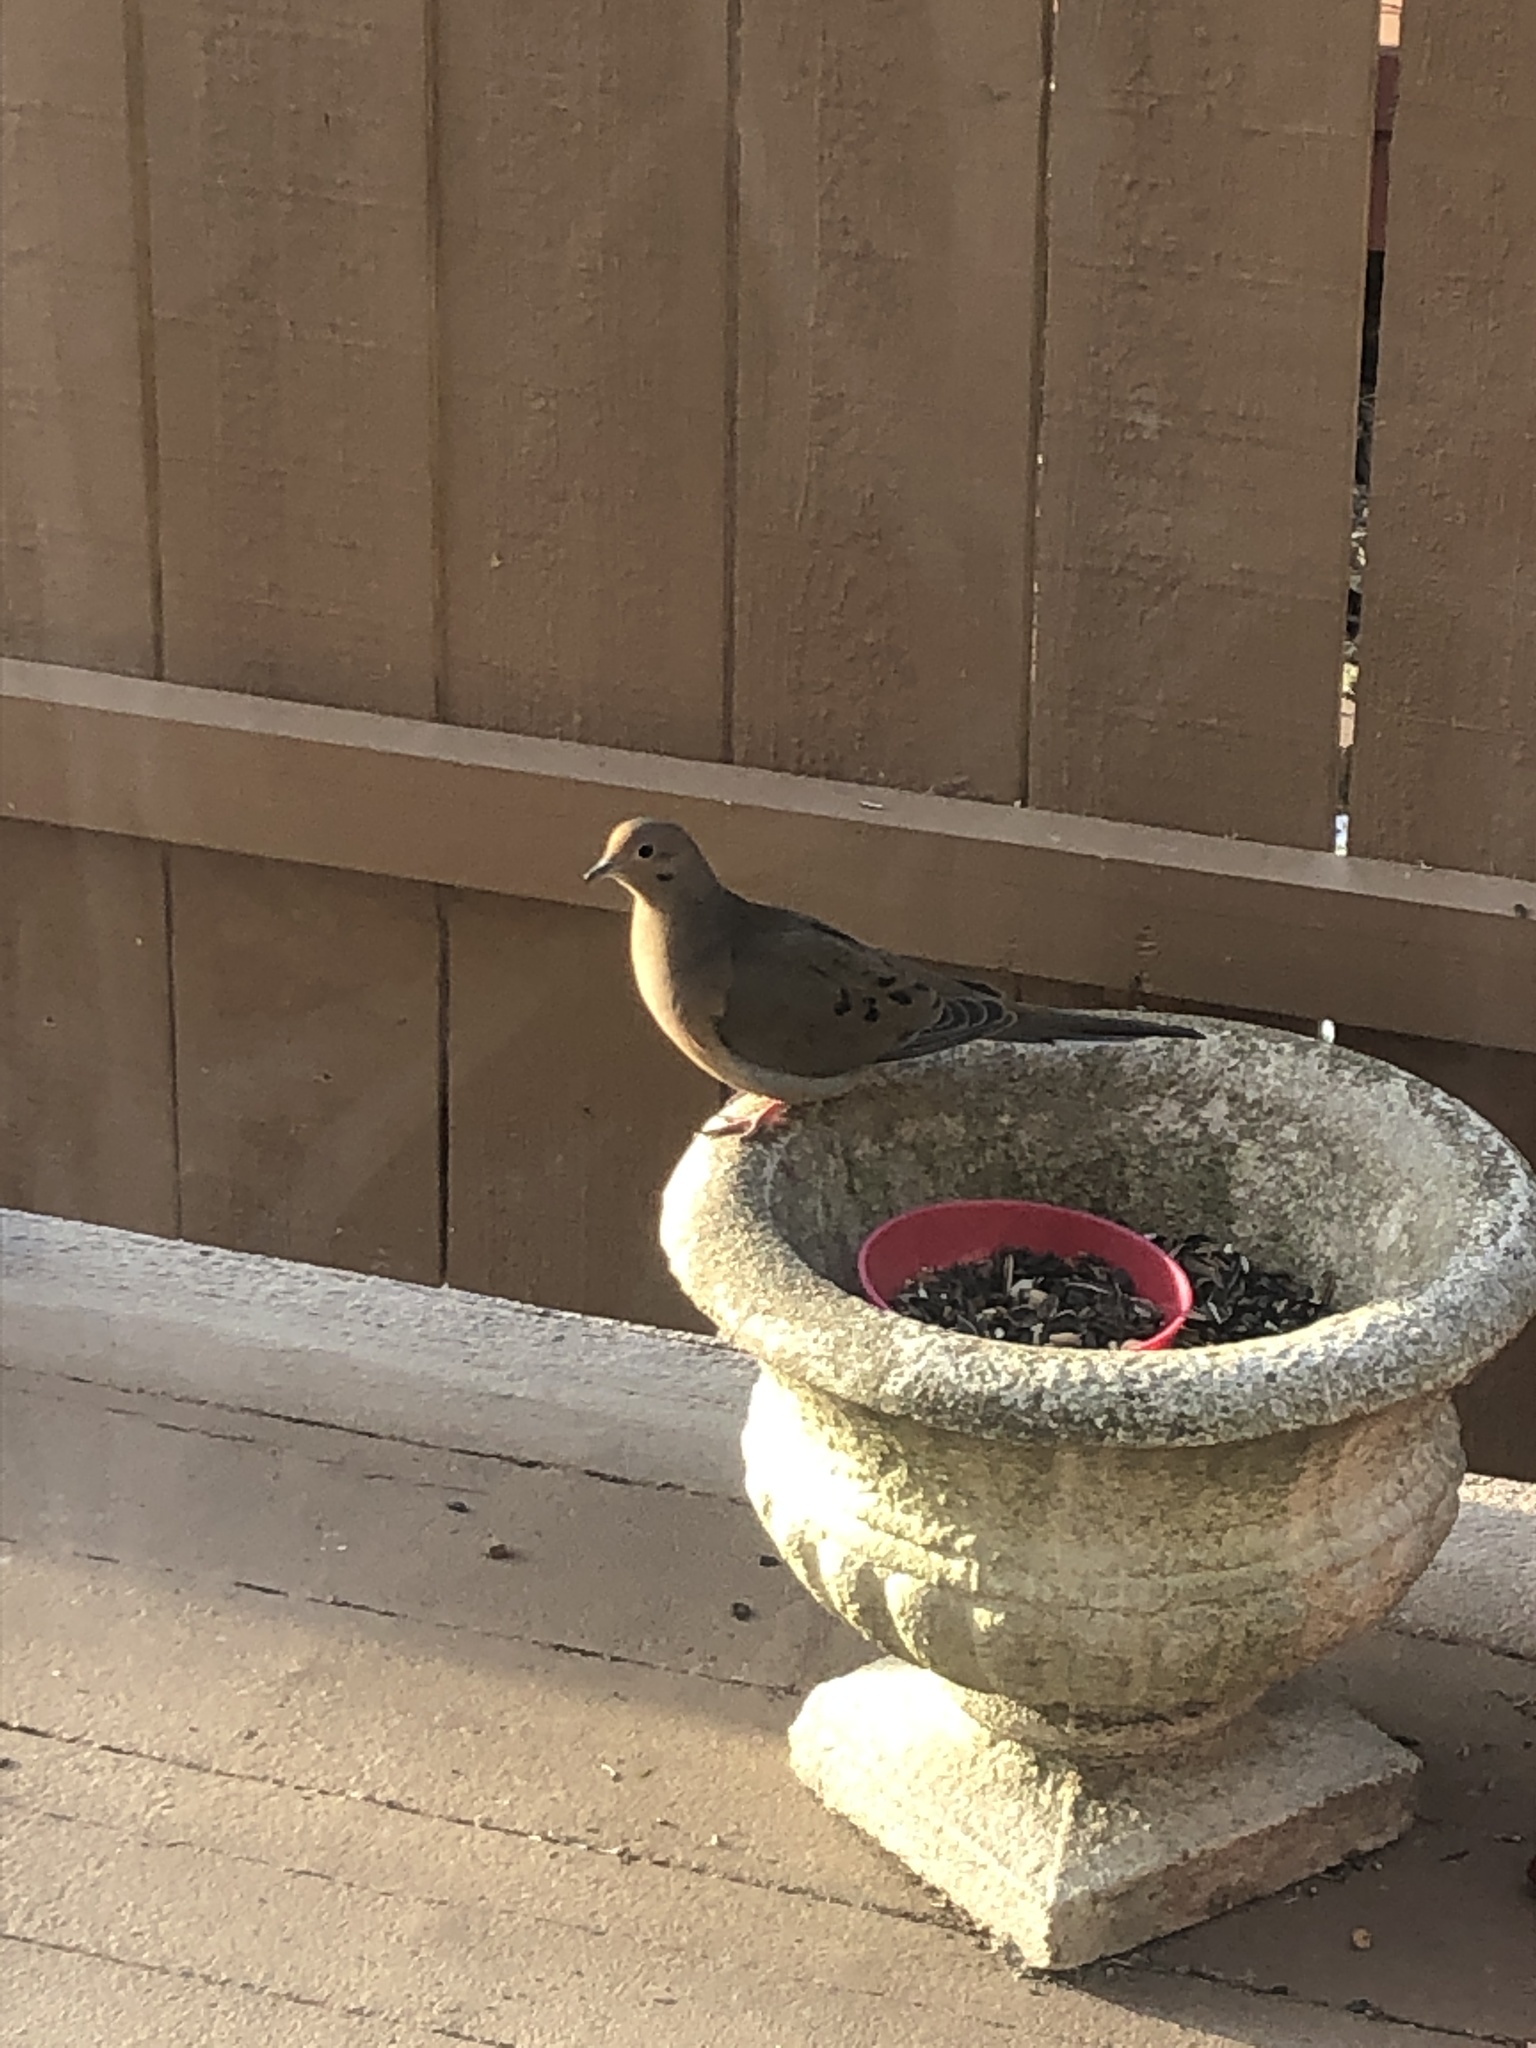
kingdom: Animalia
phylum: Chordata
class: Aves
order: Columbiformes
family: Columbidae
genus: Zenaida
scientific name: Zenaida macroura
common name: Mourning dove
